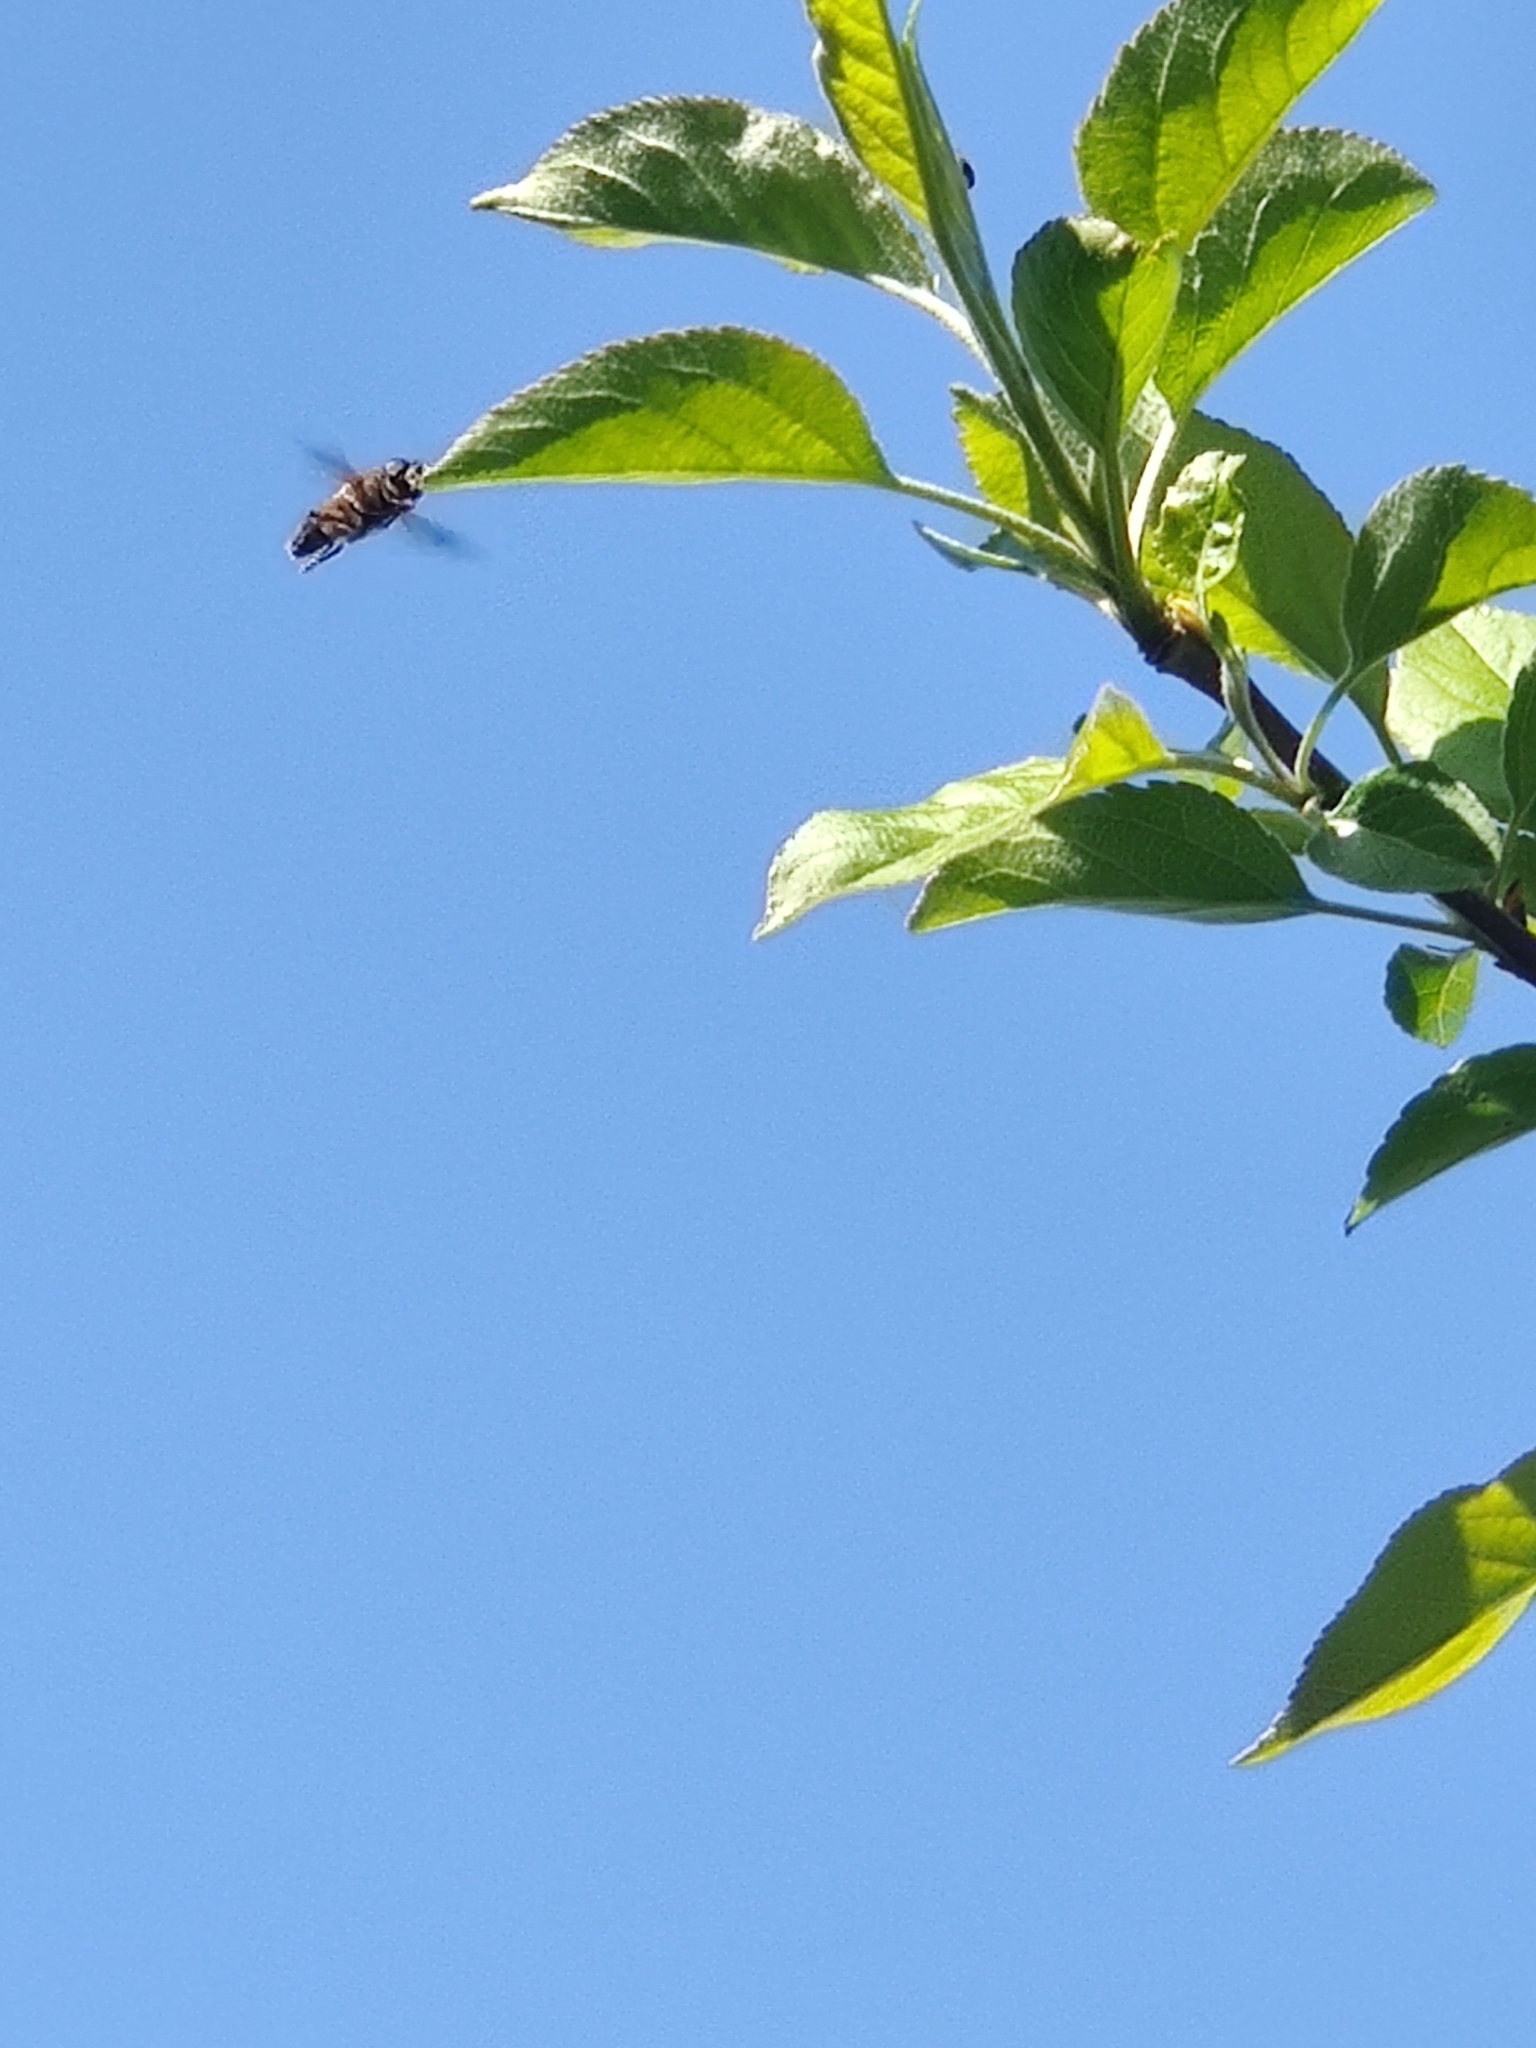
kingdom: Animalia
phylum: Arthropoda
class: Insecta
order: Diptera
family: Syrphidae
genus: Eristalis
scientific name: Eristalis
